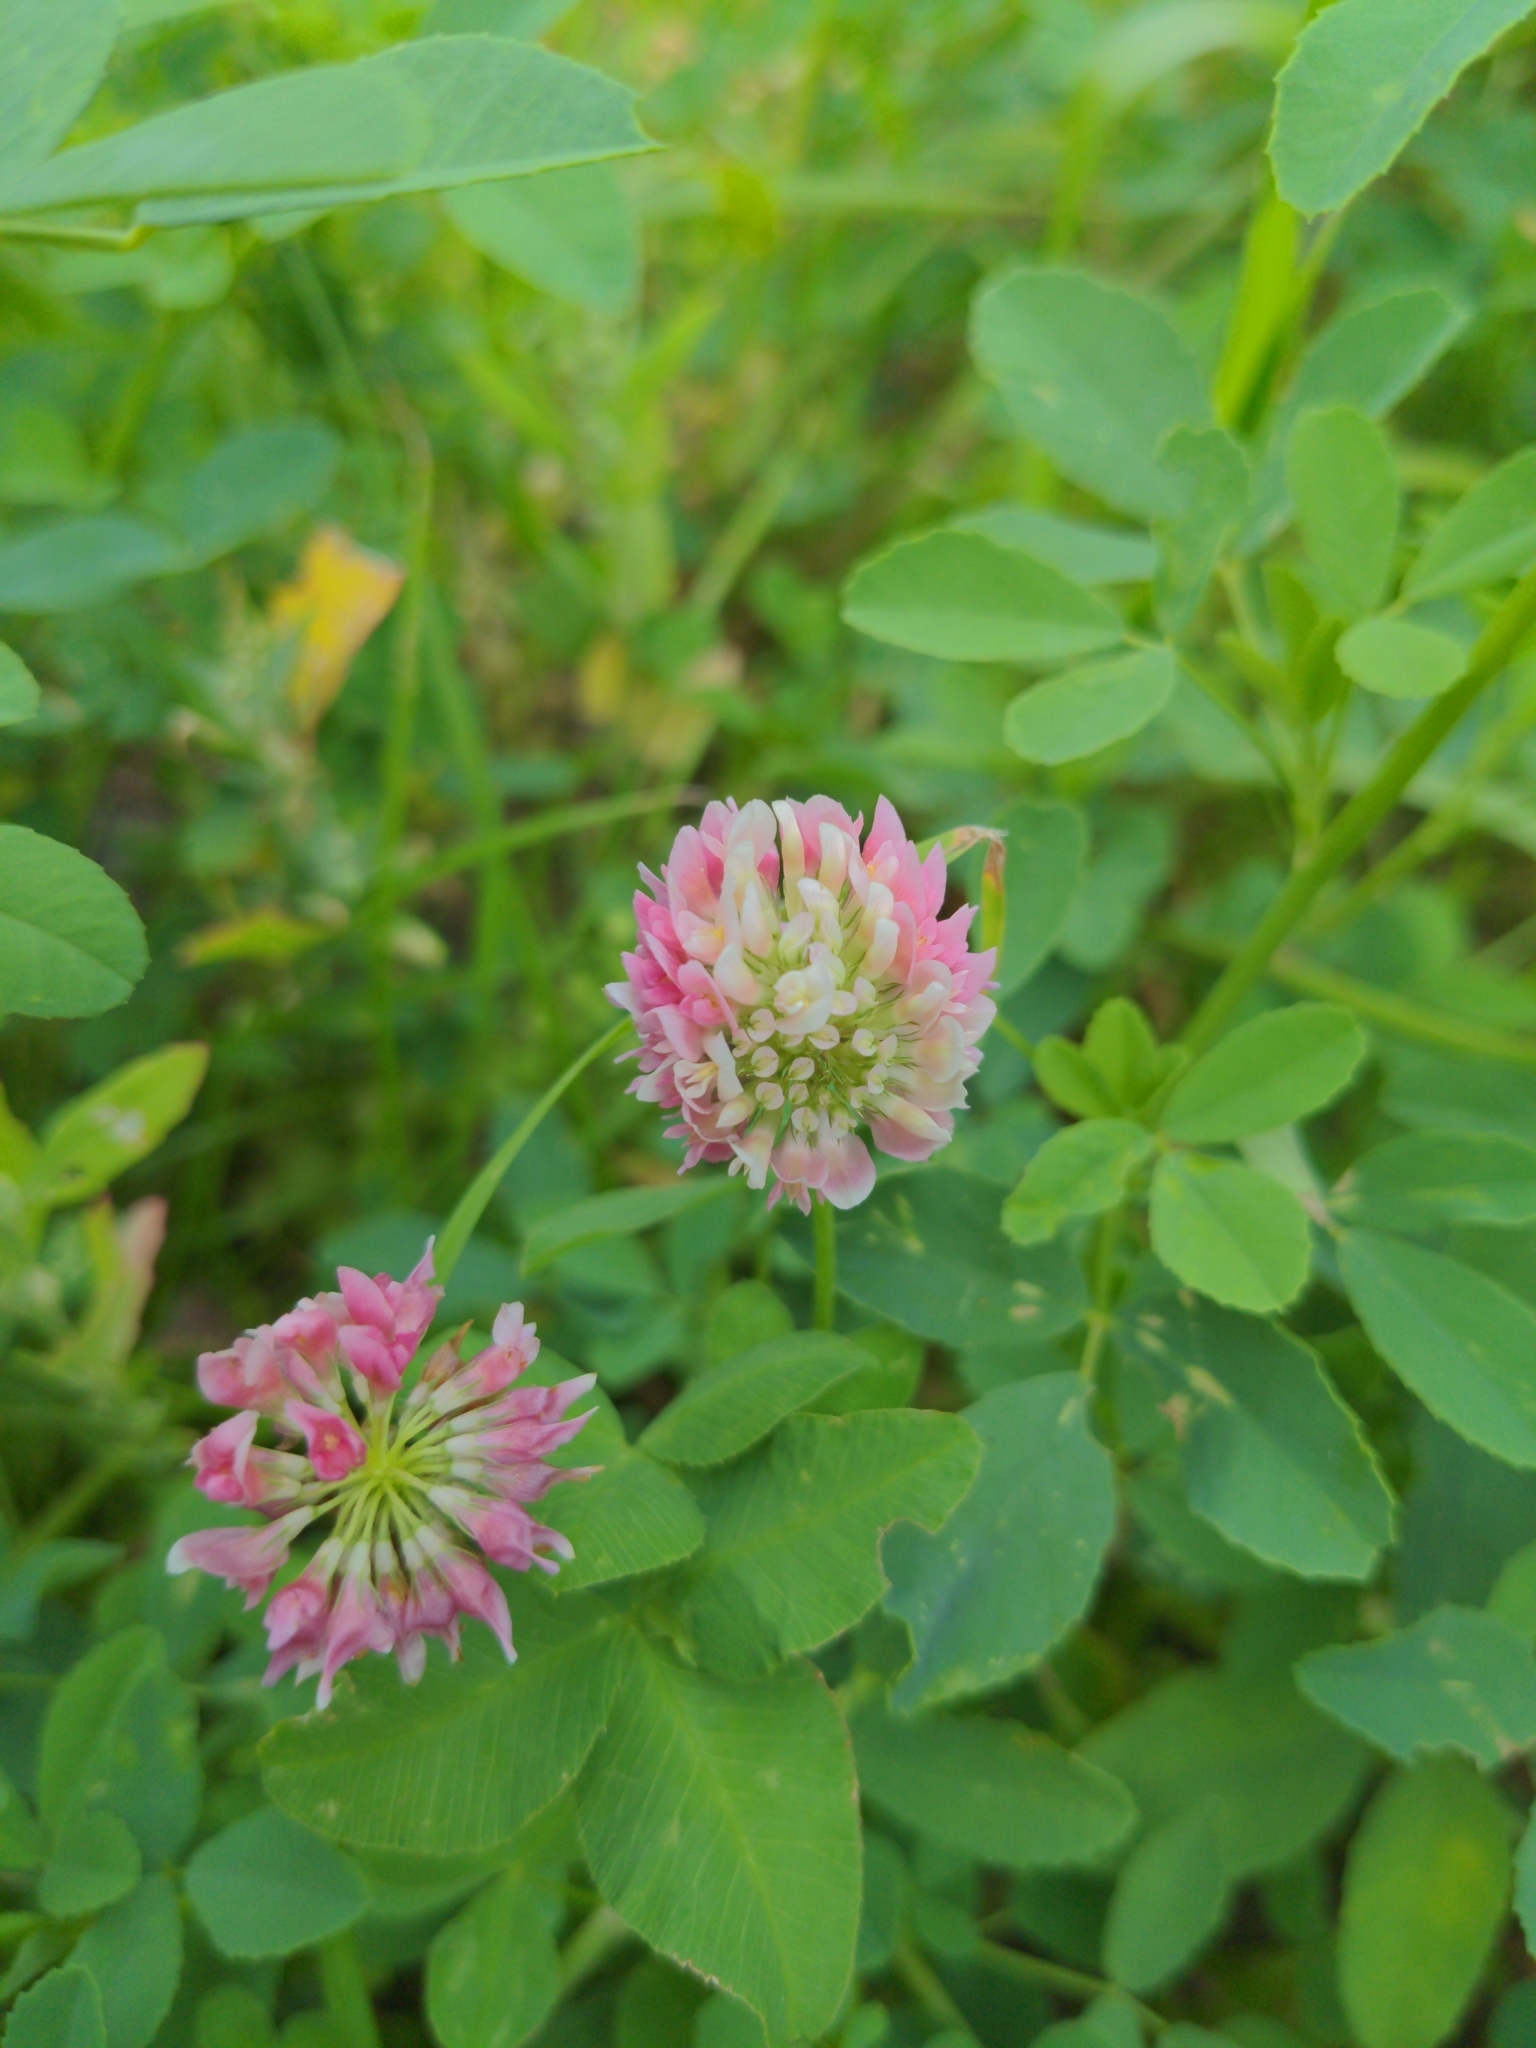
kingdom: Plantae
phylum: Tracheophyta
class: Magnoliopsida
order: Fabales
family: Fabaceae
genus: Trifolium
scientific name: Trifolium hybridum
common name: Alsike clover
